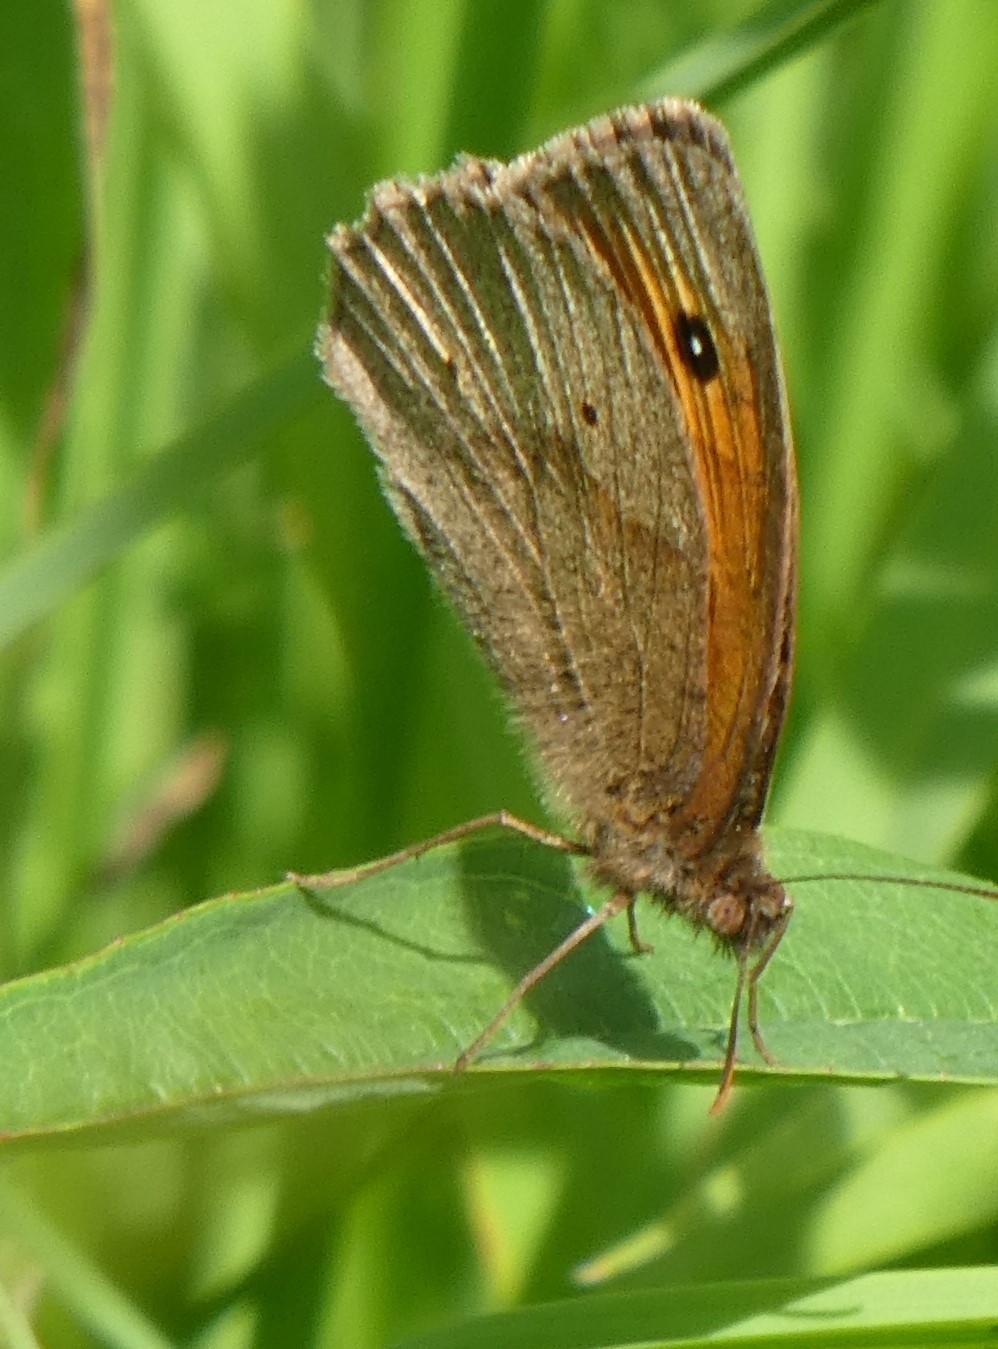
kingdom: Animalia
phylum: Arthropoda
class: Insecta
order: Lepidoptera
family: Nymphalidae
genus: Maniola
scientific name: Maniola jurtina
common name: Meadow brown
